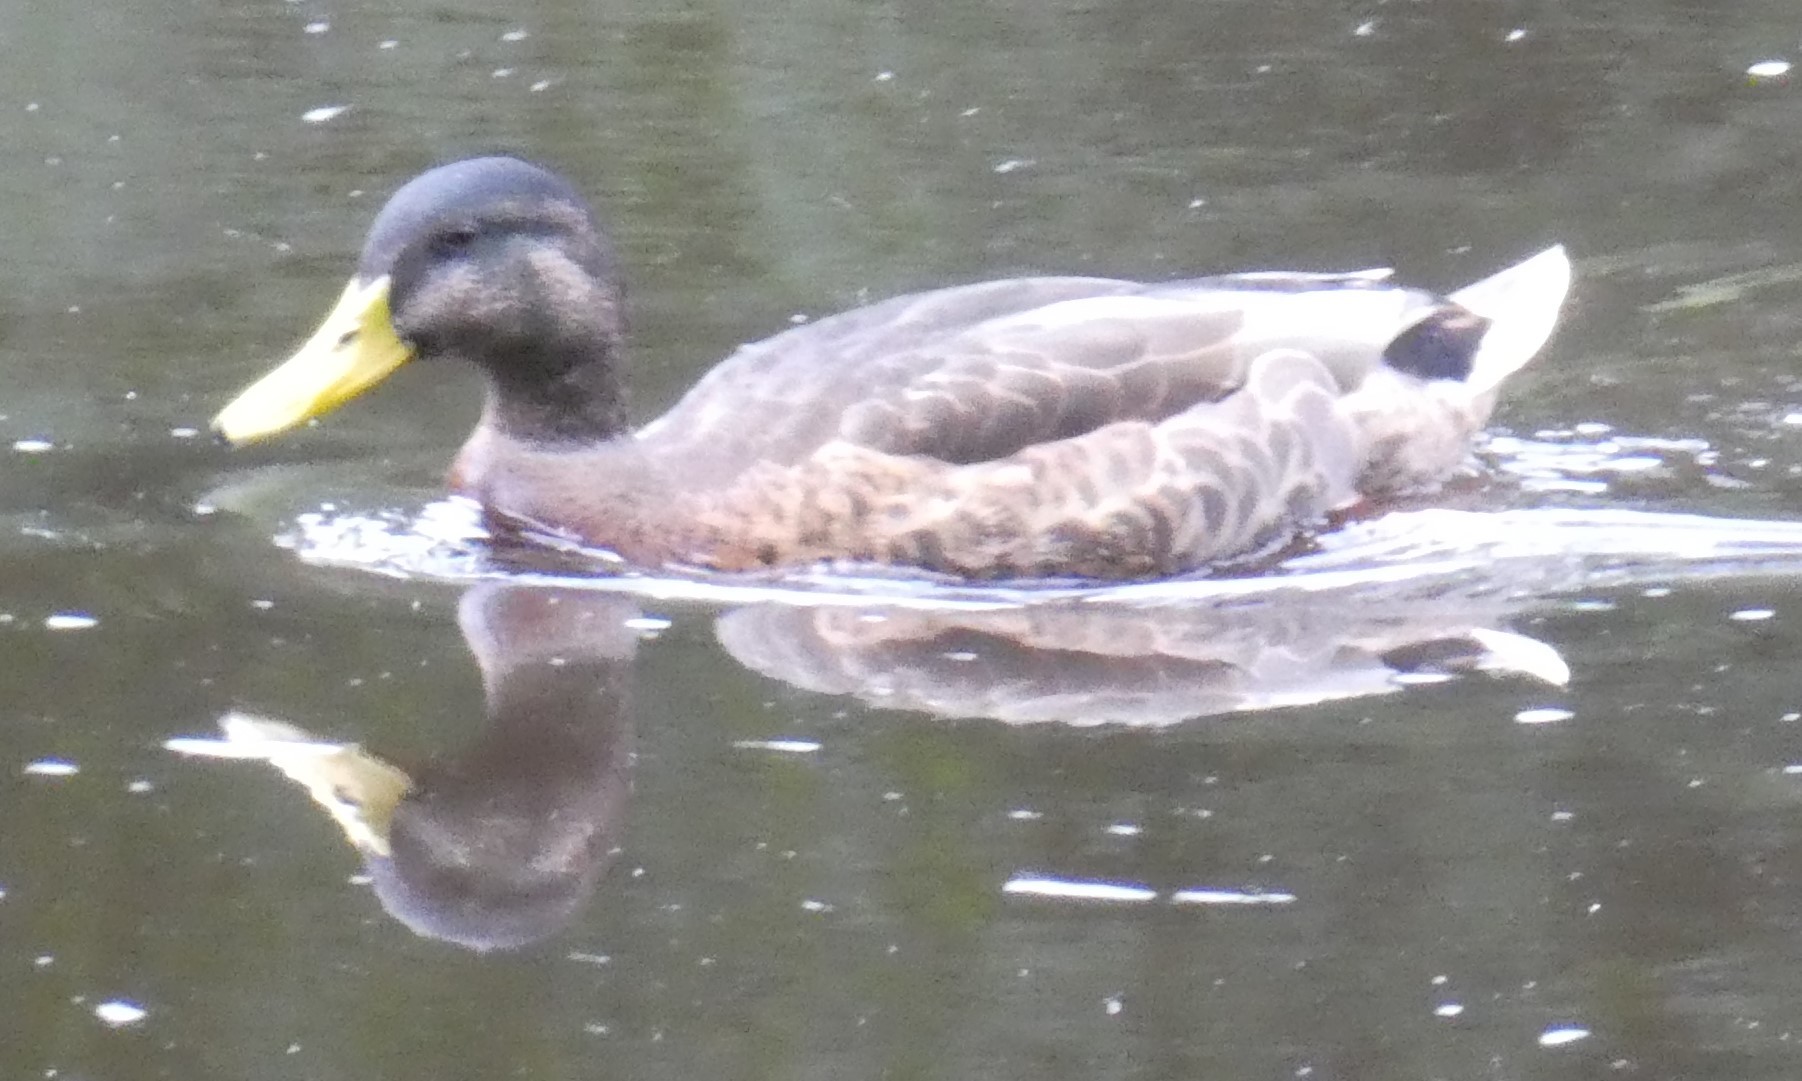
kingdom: Animalia
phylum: Chordata
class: Aves
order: Anseriformes
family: Anatidae
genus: Anas
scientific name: Anas platyrhynchos
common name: Mallard
